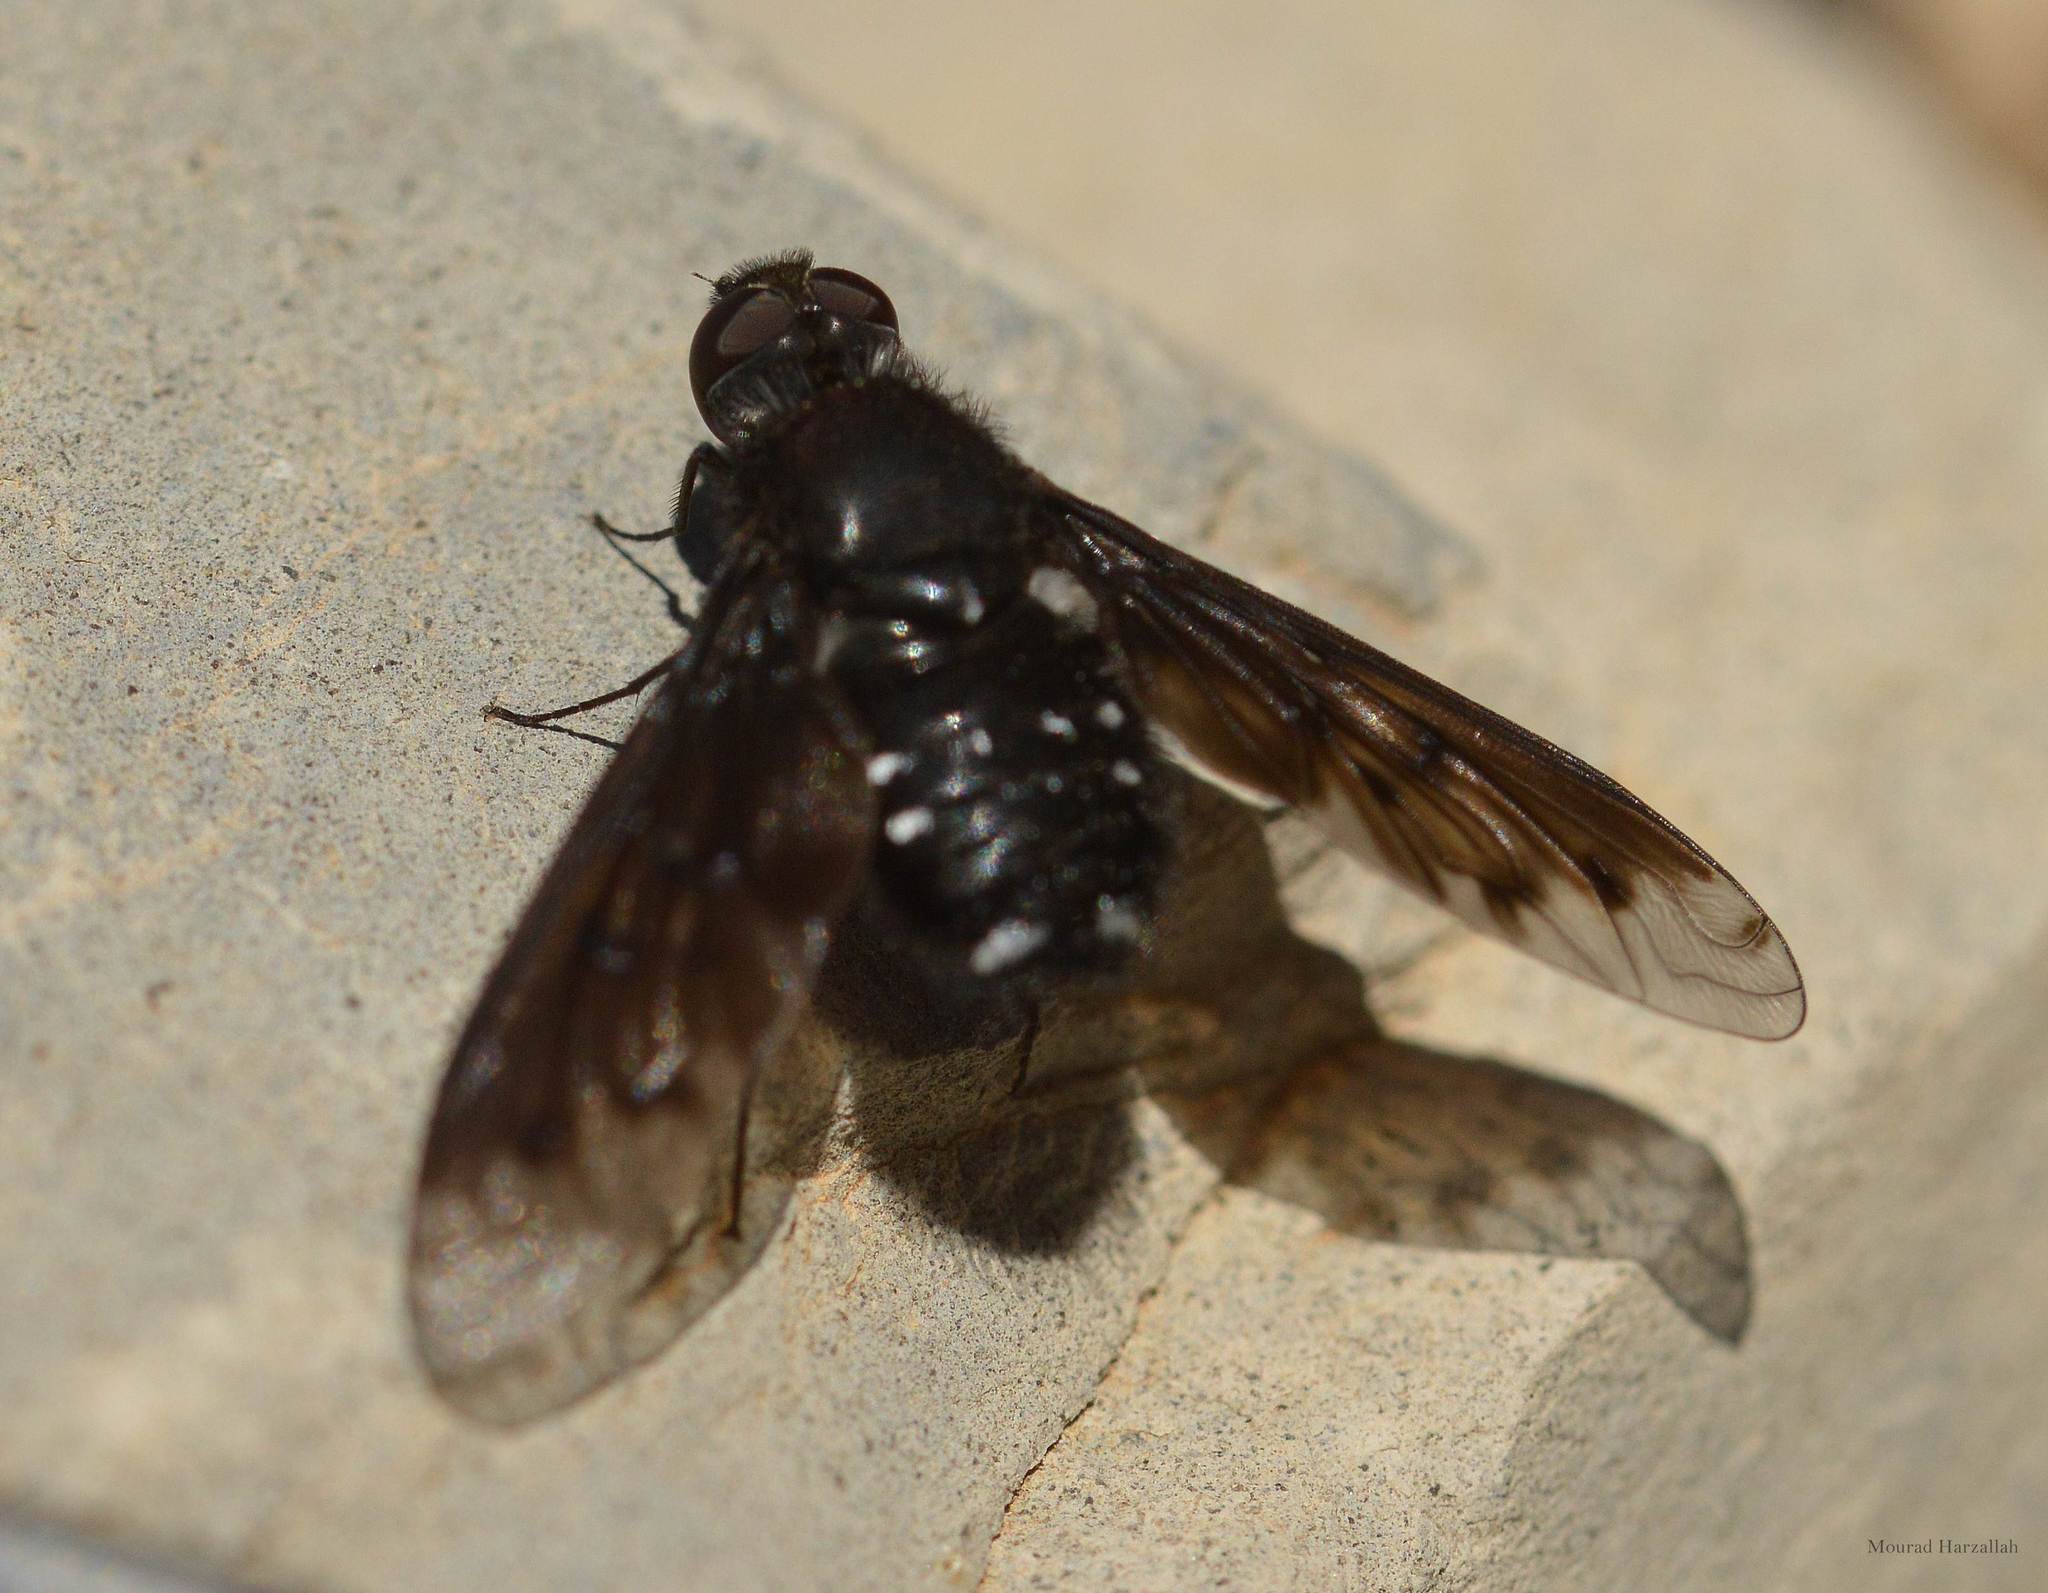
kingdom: Animalia
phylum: Arthropoda
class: Insecta
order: Diptera
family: Bombyliidae
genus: Anthrax
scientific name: Anthrax anthrax
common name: Anthracite bee-fly
